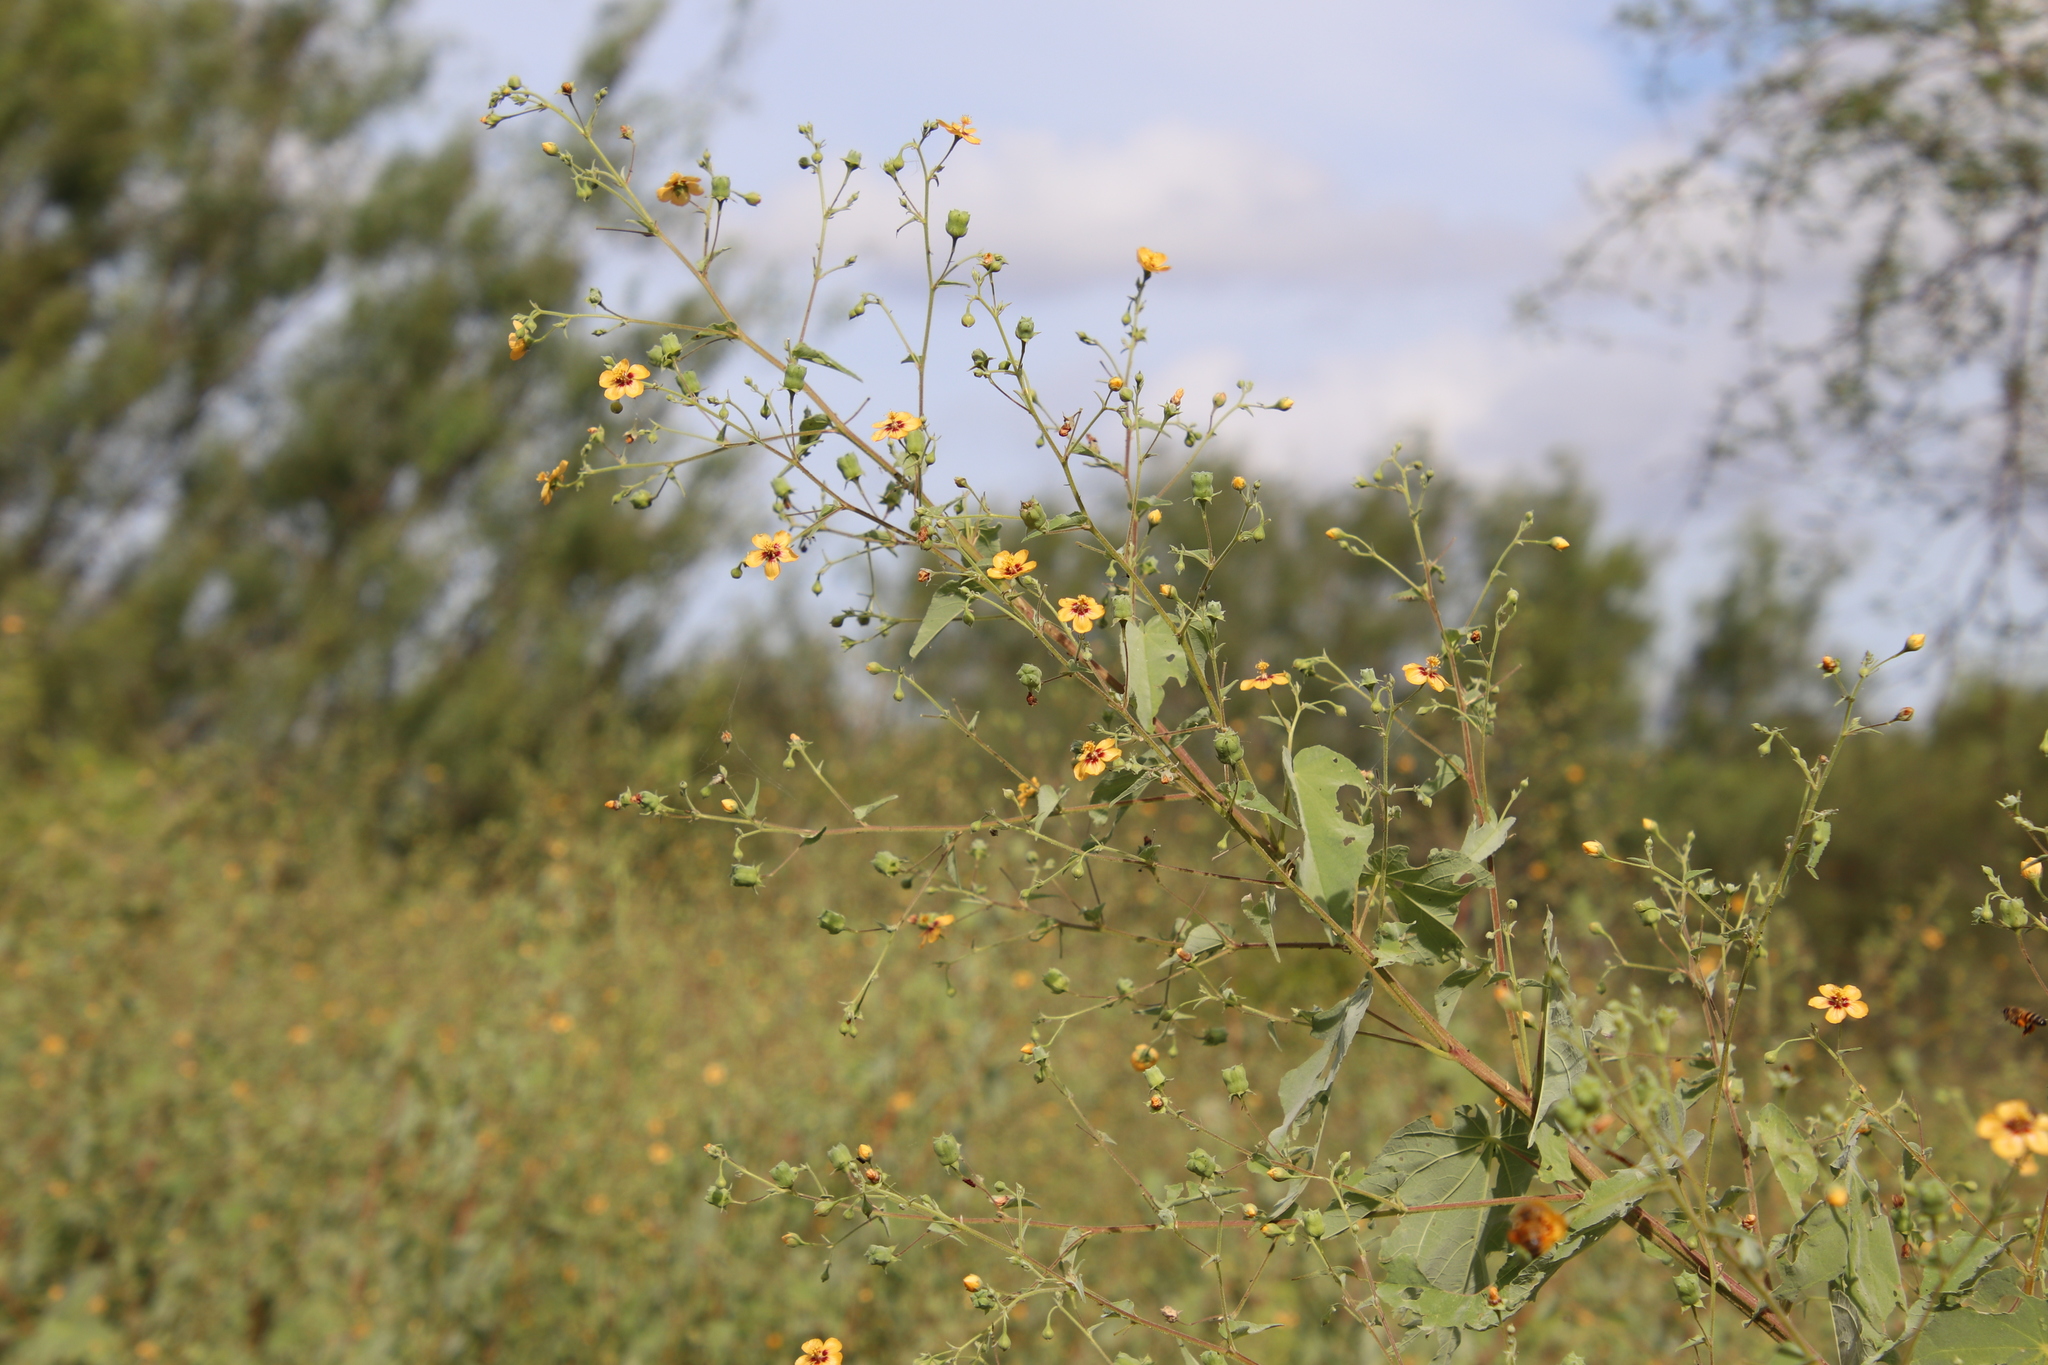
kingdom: Plantae
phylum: Tracheophyta
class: Magnoliopsida
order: Malvales
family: Malvaceae
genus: Abutilon
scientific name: Abutilon trisulcatum
